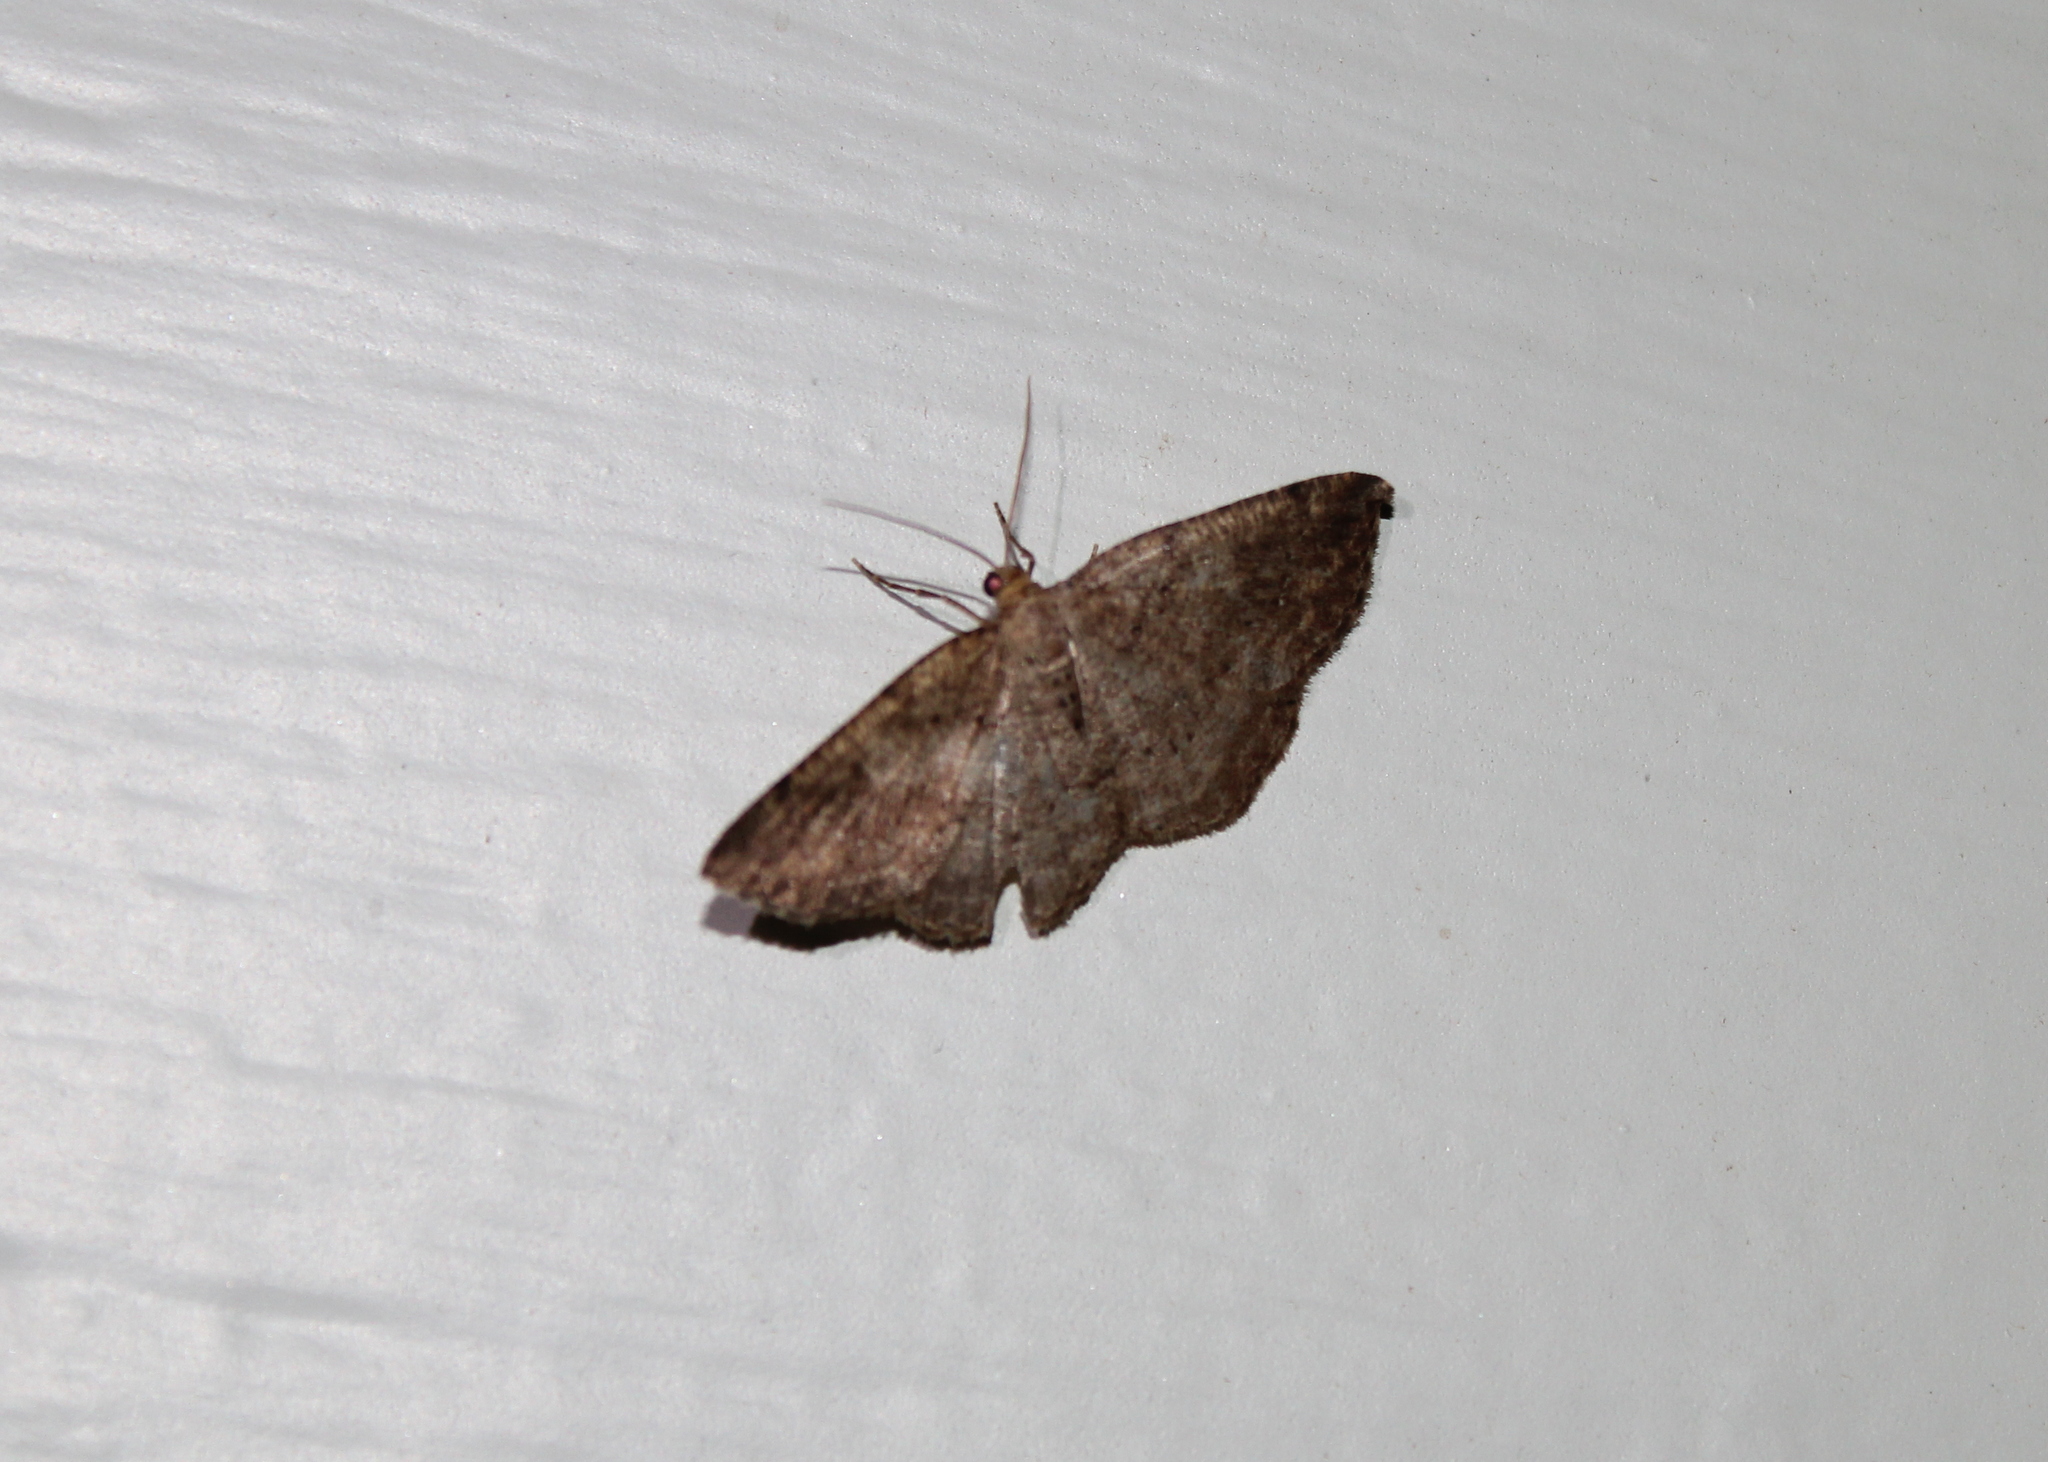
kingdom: Animalia
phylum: Arthropoda
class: Insecta
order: Lepidoptera
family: Geometridae
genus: Homochlodes
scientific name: Homochlodes fritillaria
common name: Pale homochlodes
